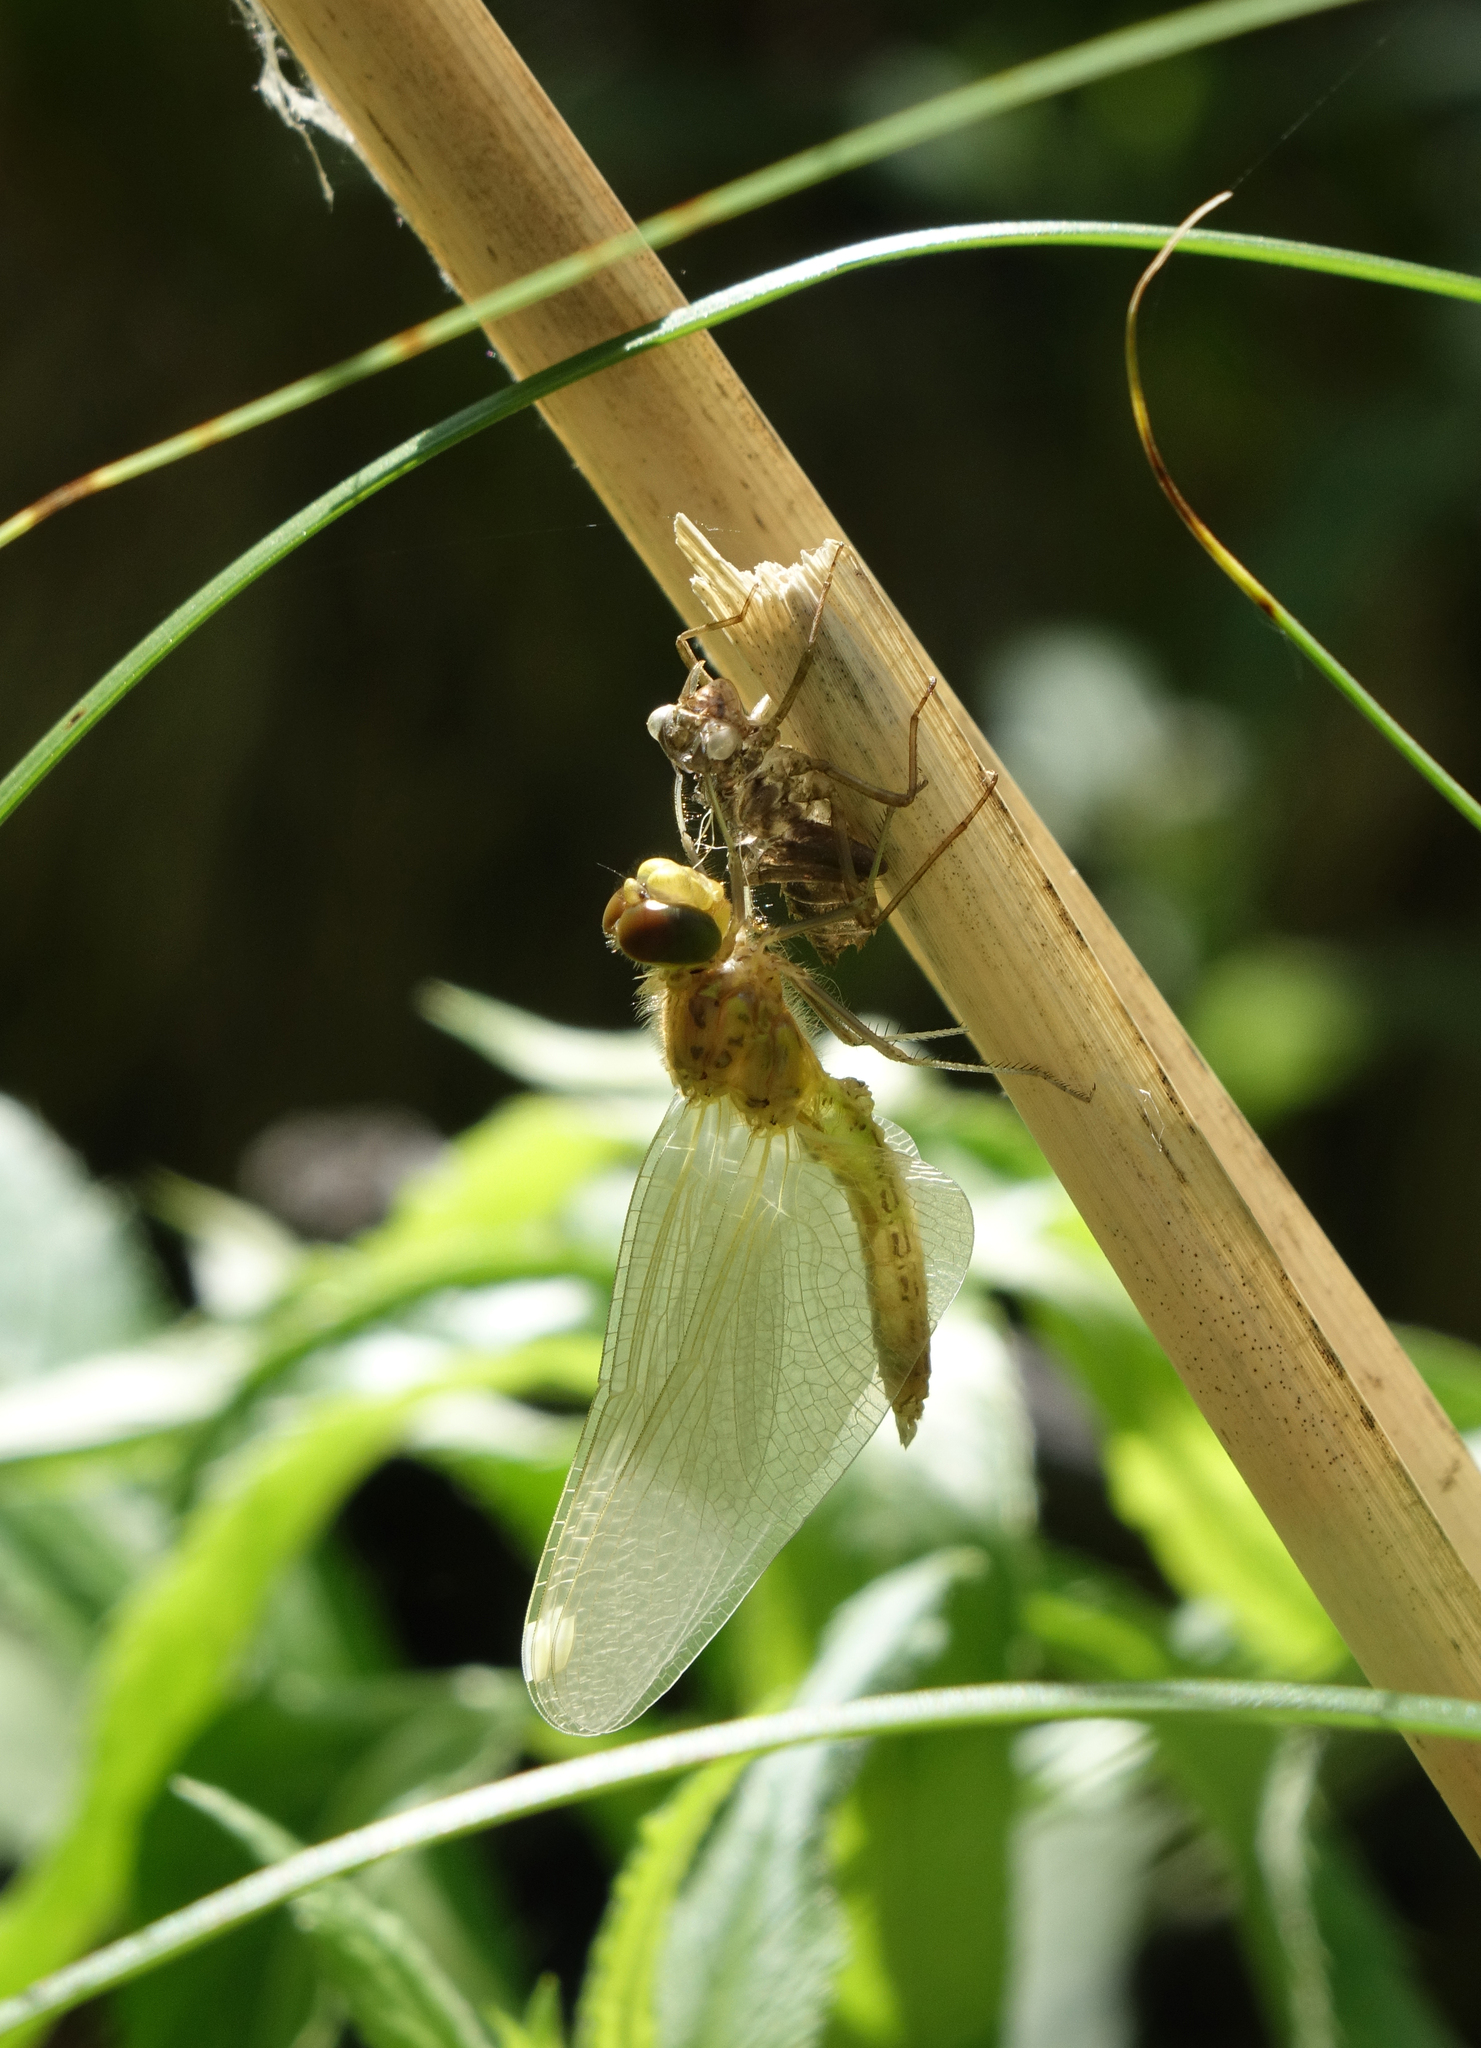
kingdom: Animalia
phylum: Arthropoda
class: Insecta
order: Odonata
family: Libellulidae
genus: Sympetrum
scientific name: Sympetrum flaveolum
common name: Yellow-winged darter
